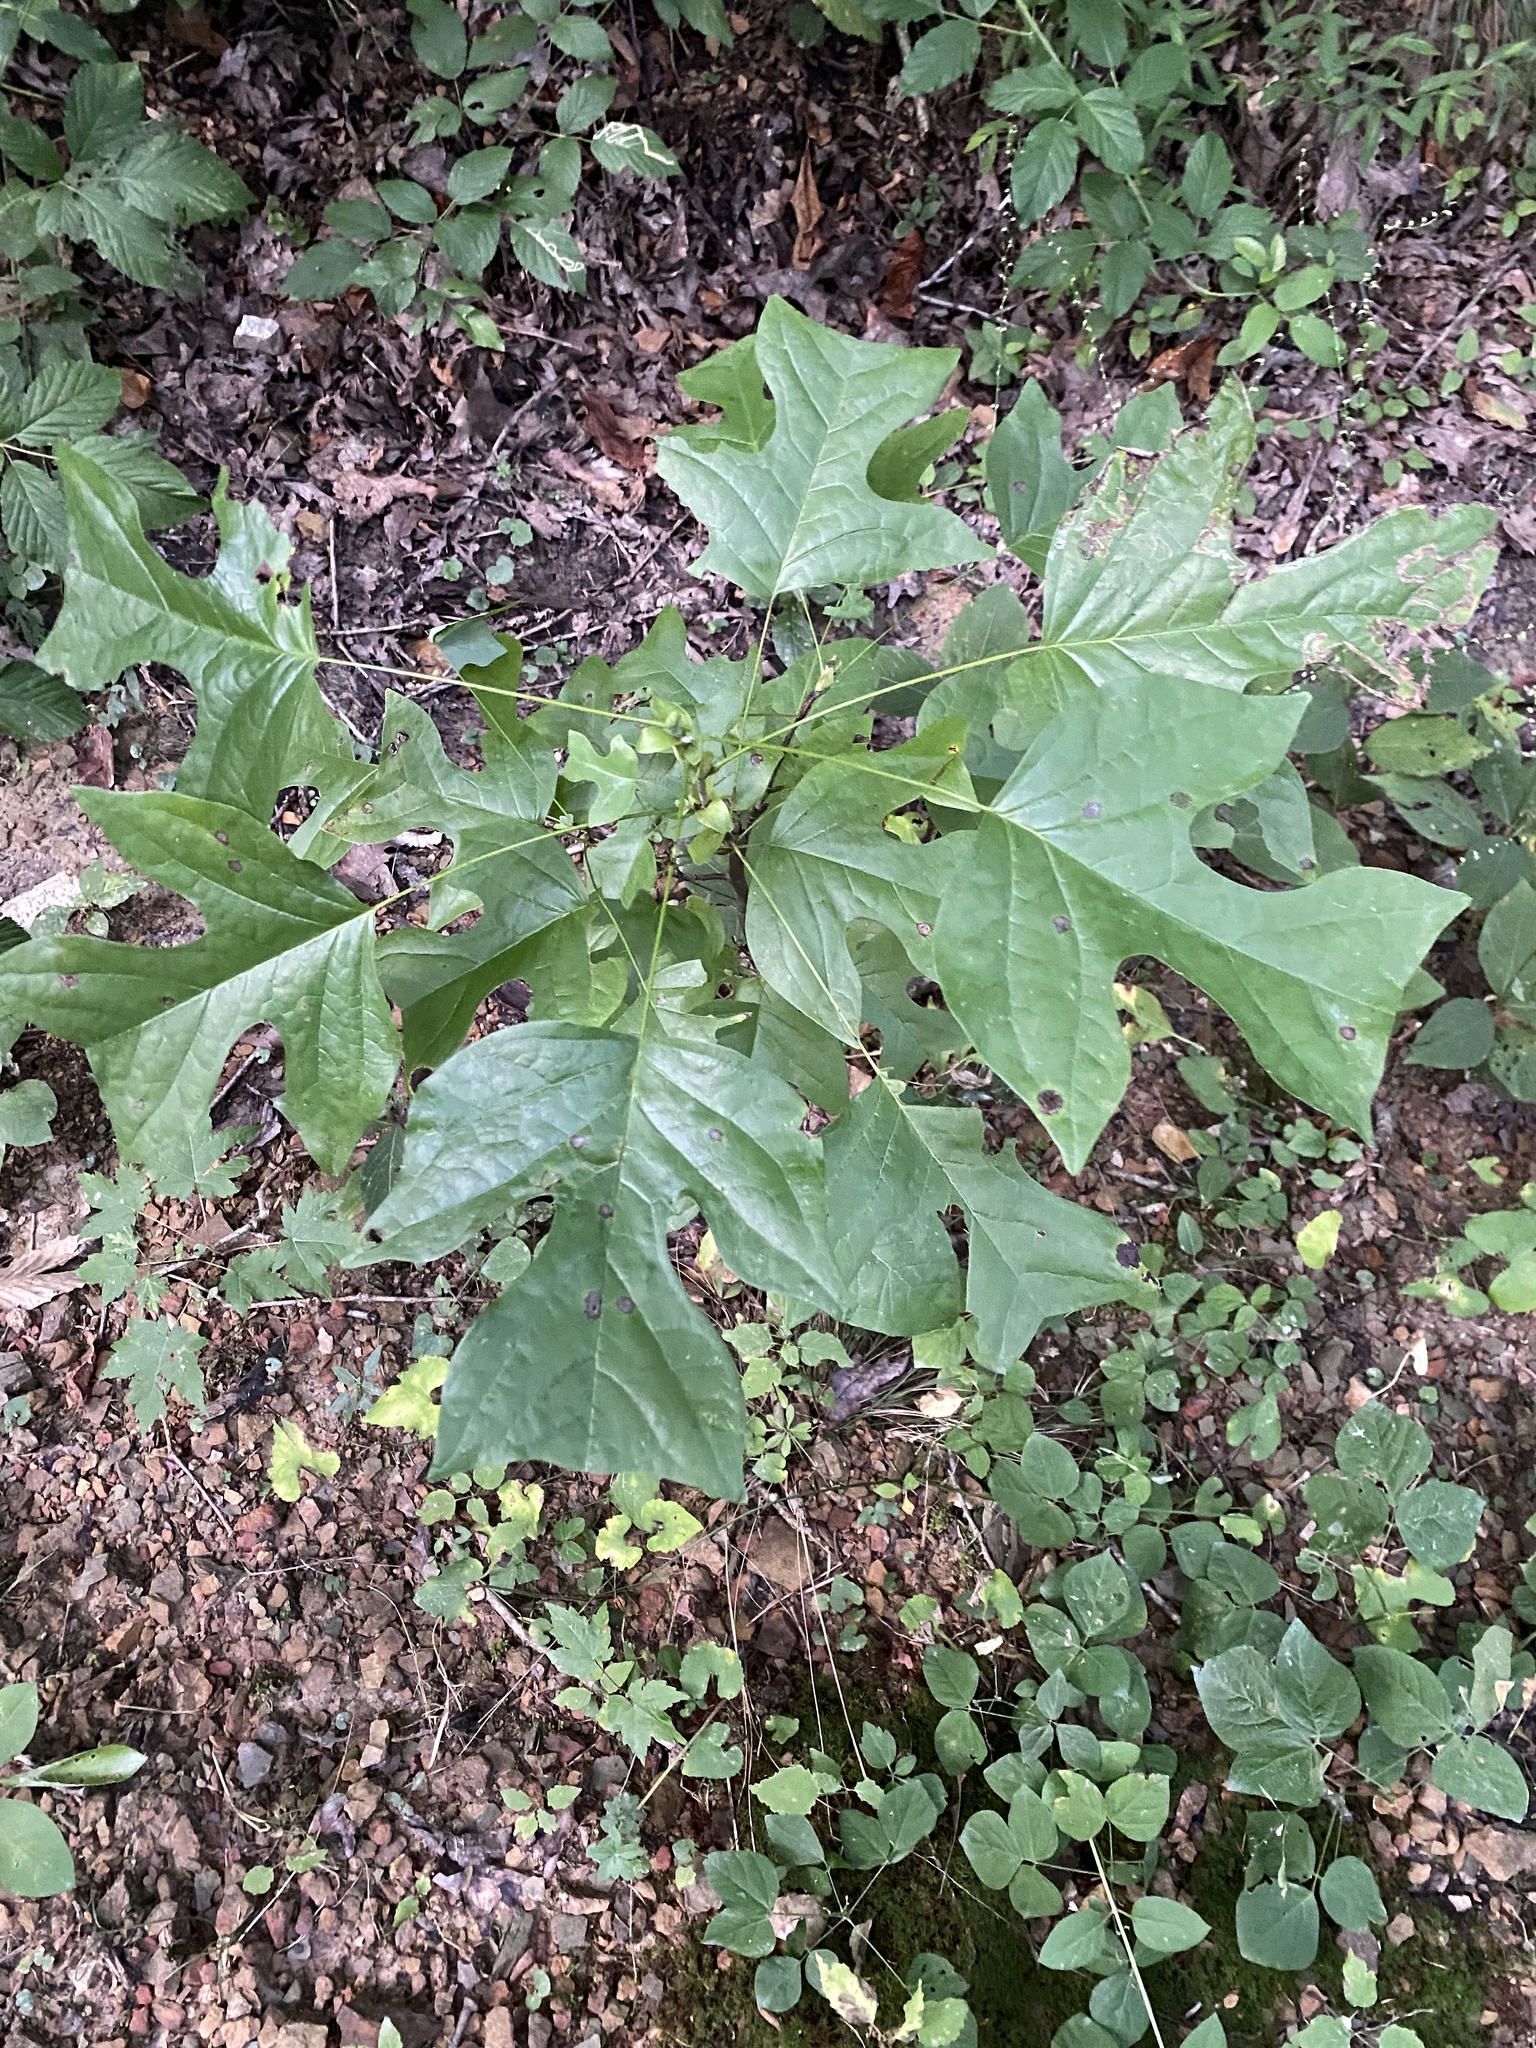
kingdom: Plantae
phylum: Tracheophyta
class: Magnoliopsida
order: Magnoliales
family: Magnoliaceae
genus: Liriodendron
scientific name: Liriodendron tulipifera
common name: Tulip tree
